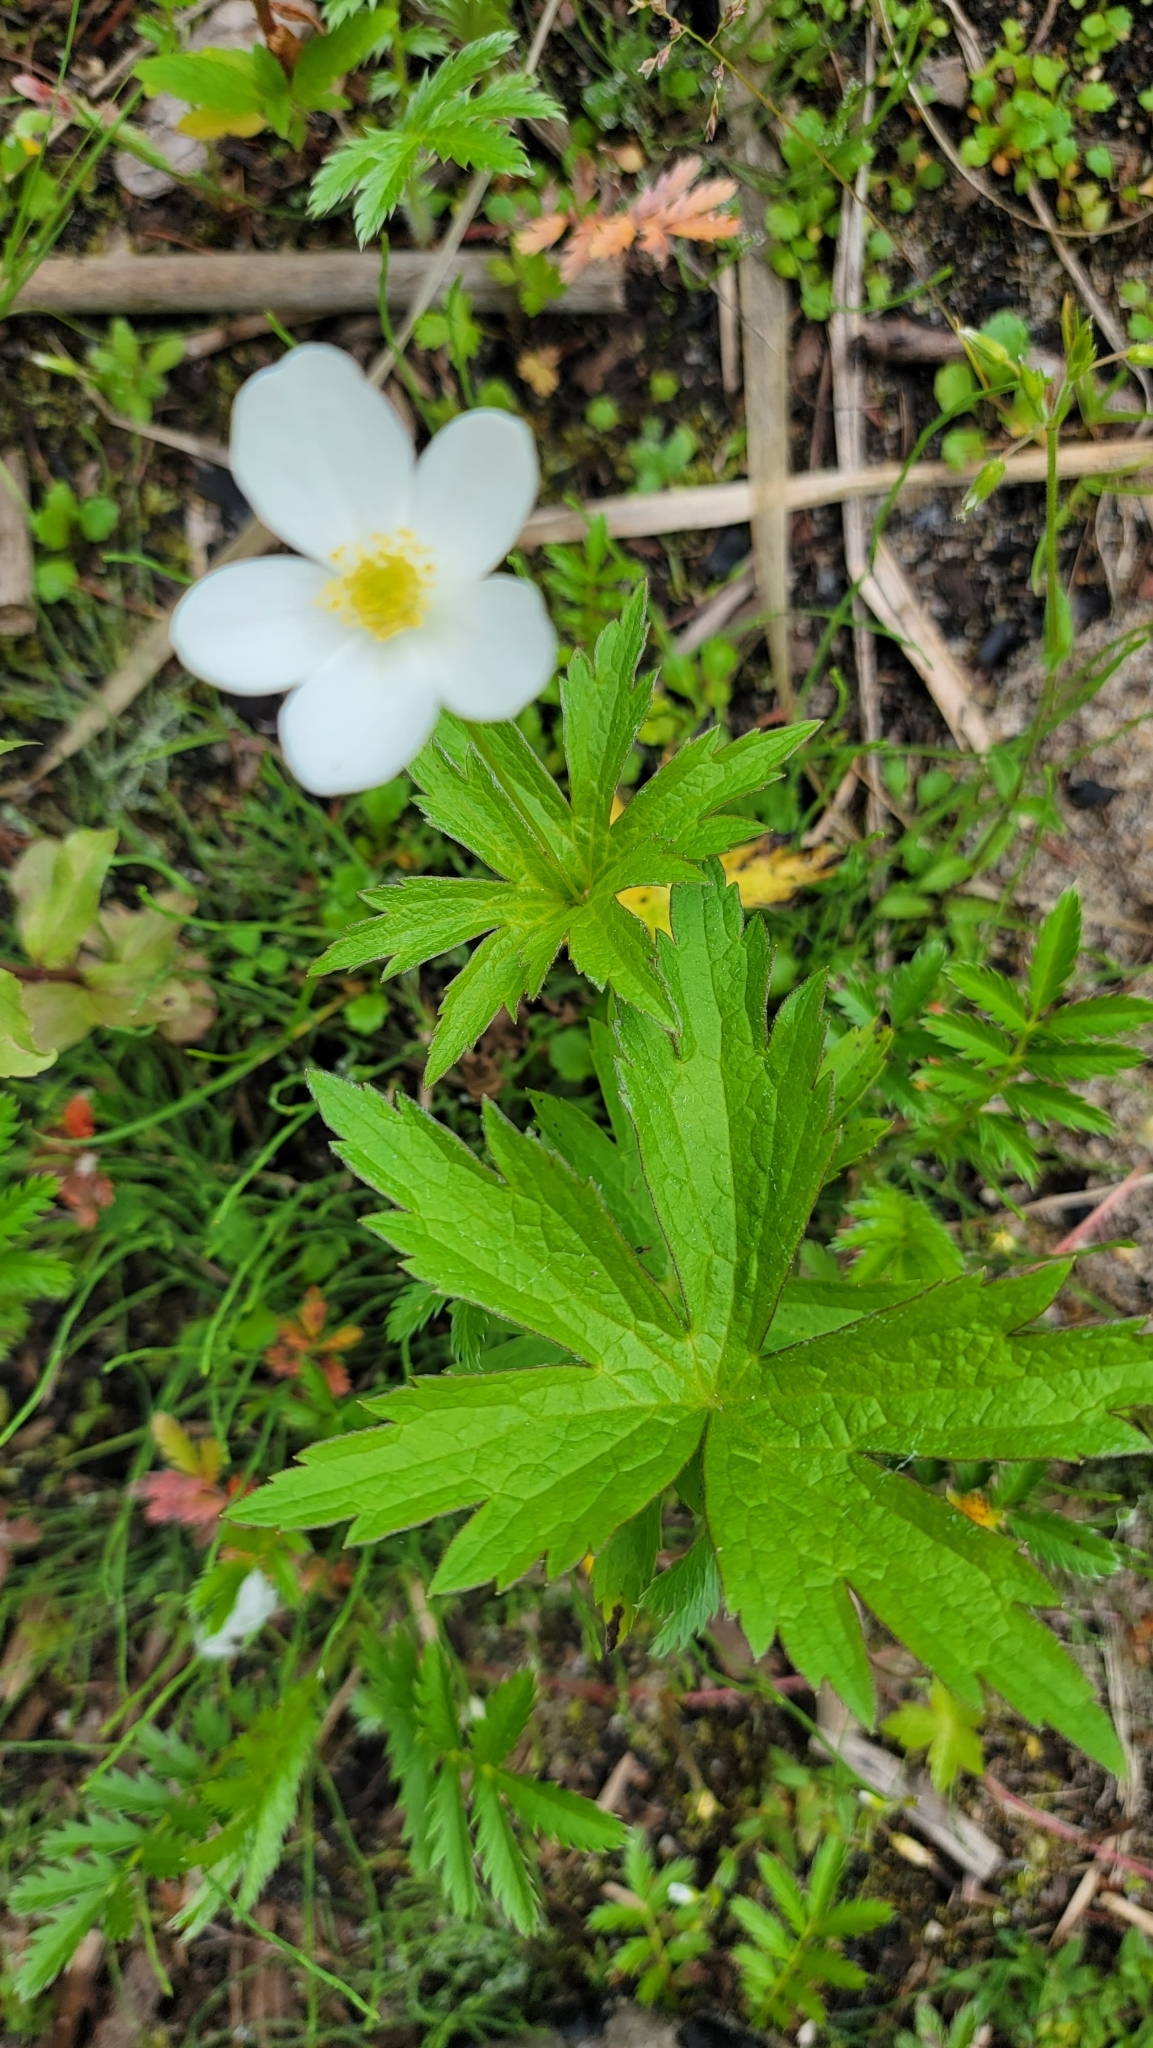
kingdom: Plantae
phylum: Tracheophyta
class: Magnoliopsida
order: Ranunculales
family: Ranunculaceae
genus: Anemonastrum
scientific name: Anemonastrum canadense
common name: Canada anemone
